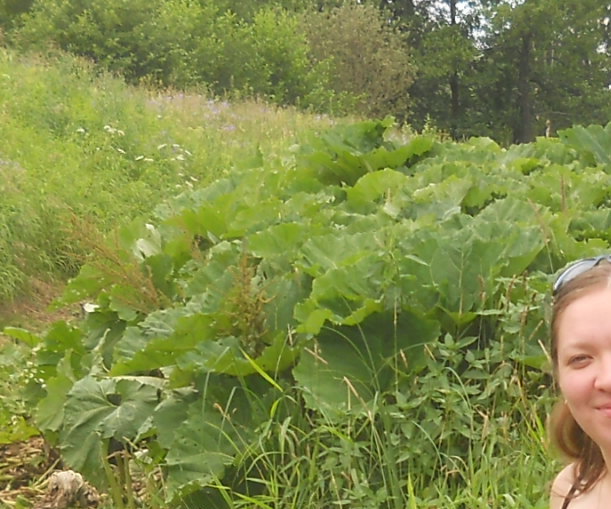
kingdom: Plantae
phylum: Tracheophyta
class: Magnoliopsida
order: Asterales
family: Asteraceae
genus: Petasites
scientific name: Petasites hybridus
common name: Butterbur
